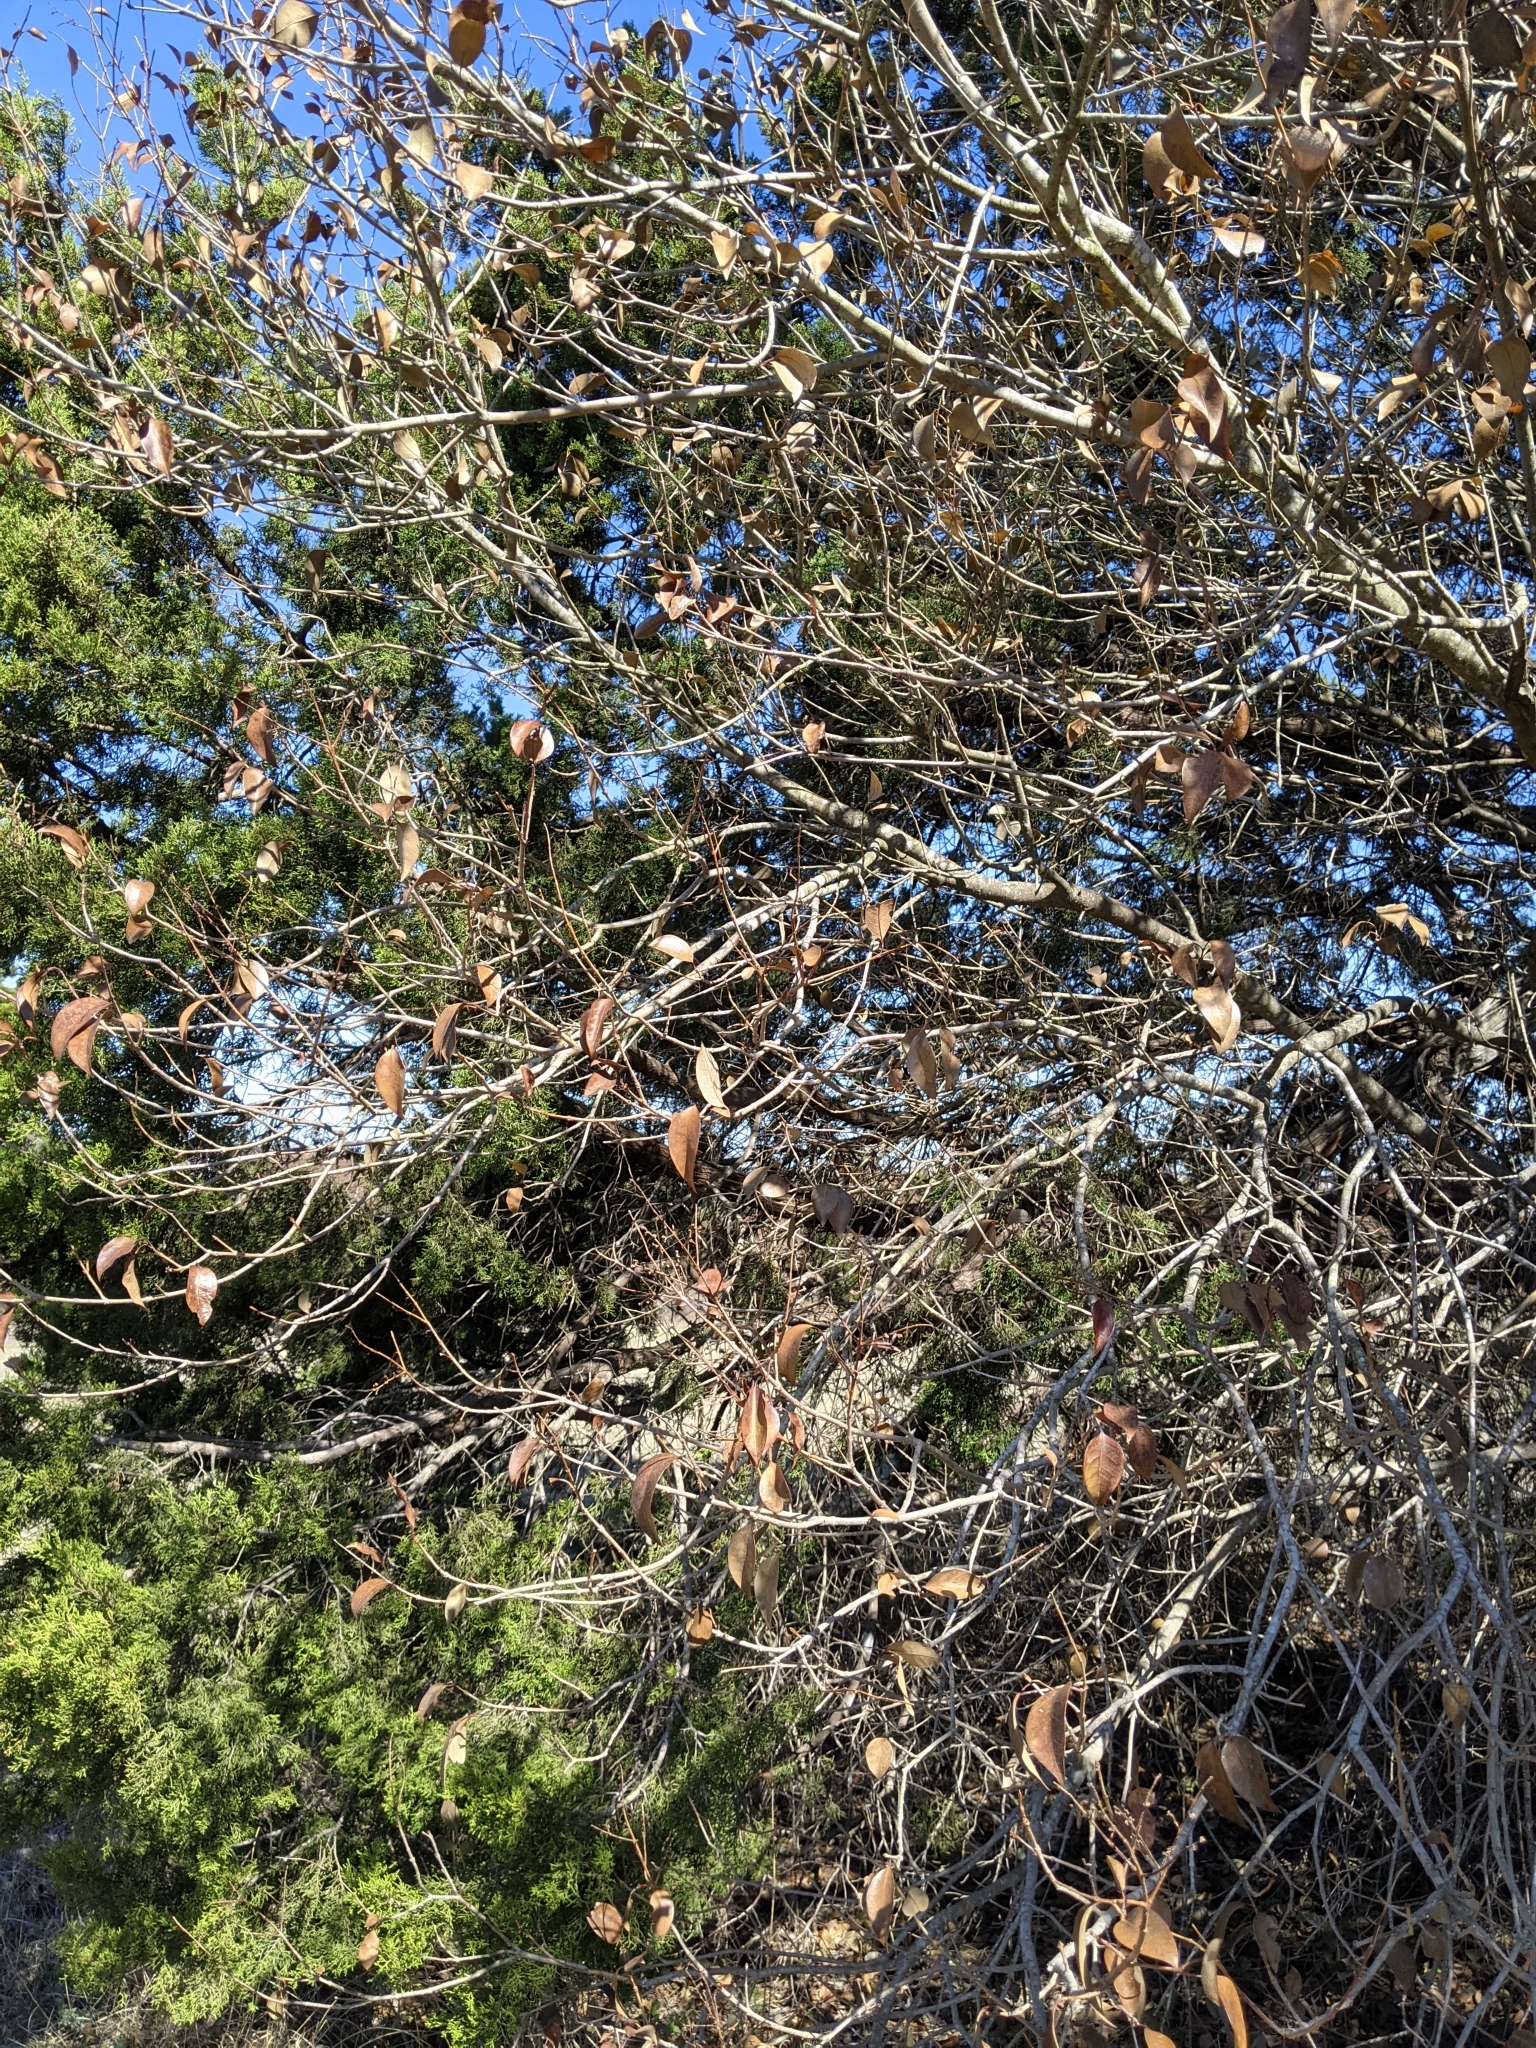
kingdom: Plantae
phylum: Tracheophyta
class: Magnoliopsida
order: Lamiales
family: Oleaceae
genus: Ligustrum
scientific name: Ligustrum lucidum
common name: Glossy privet
